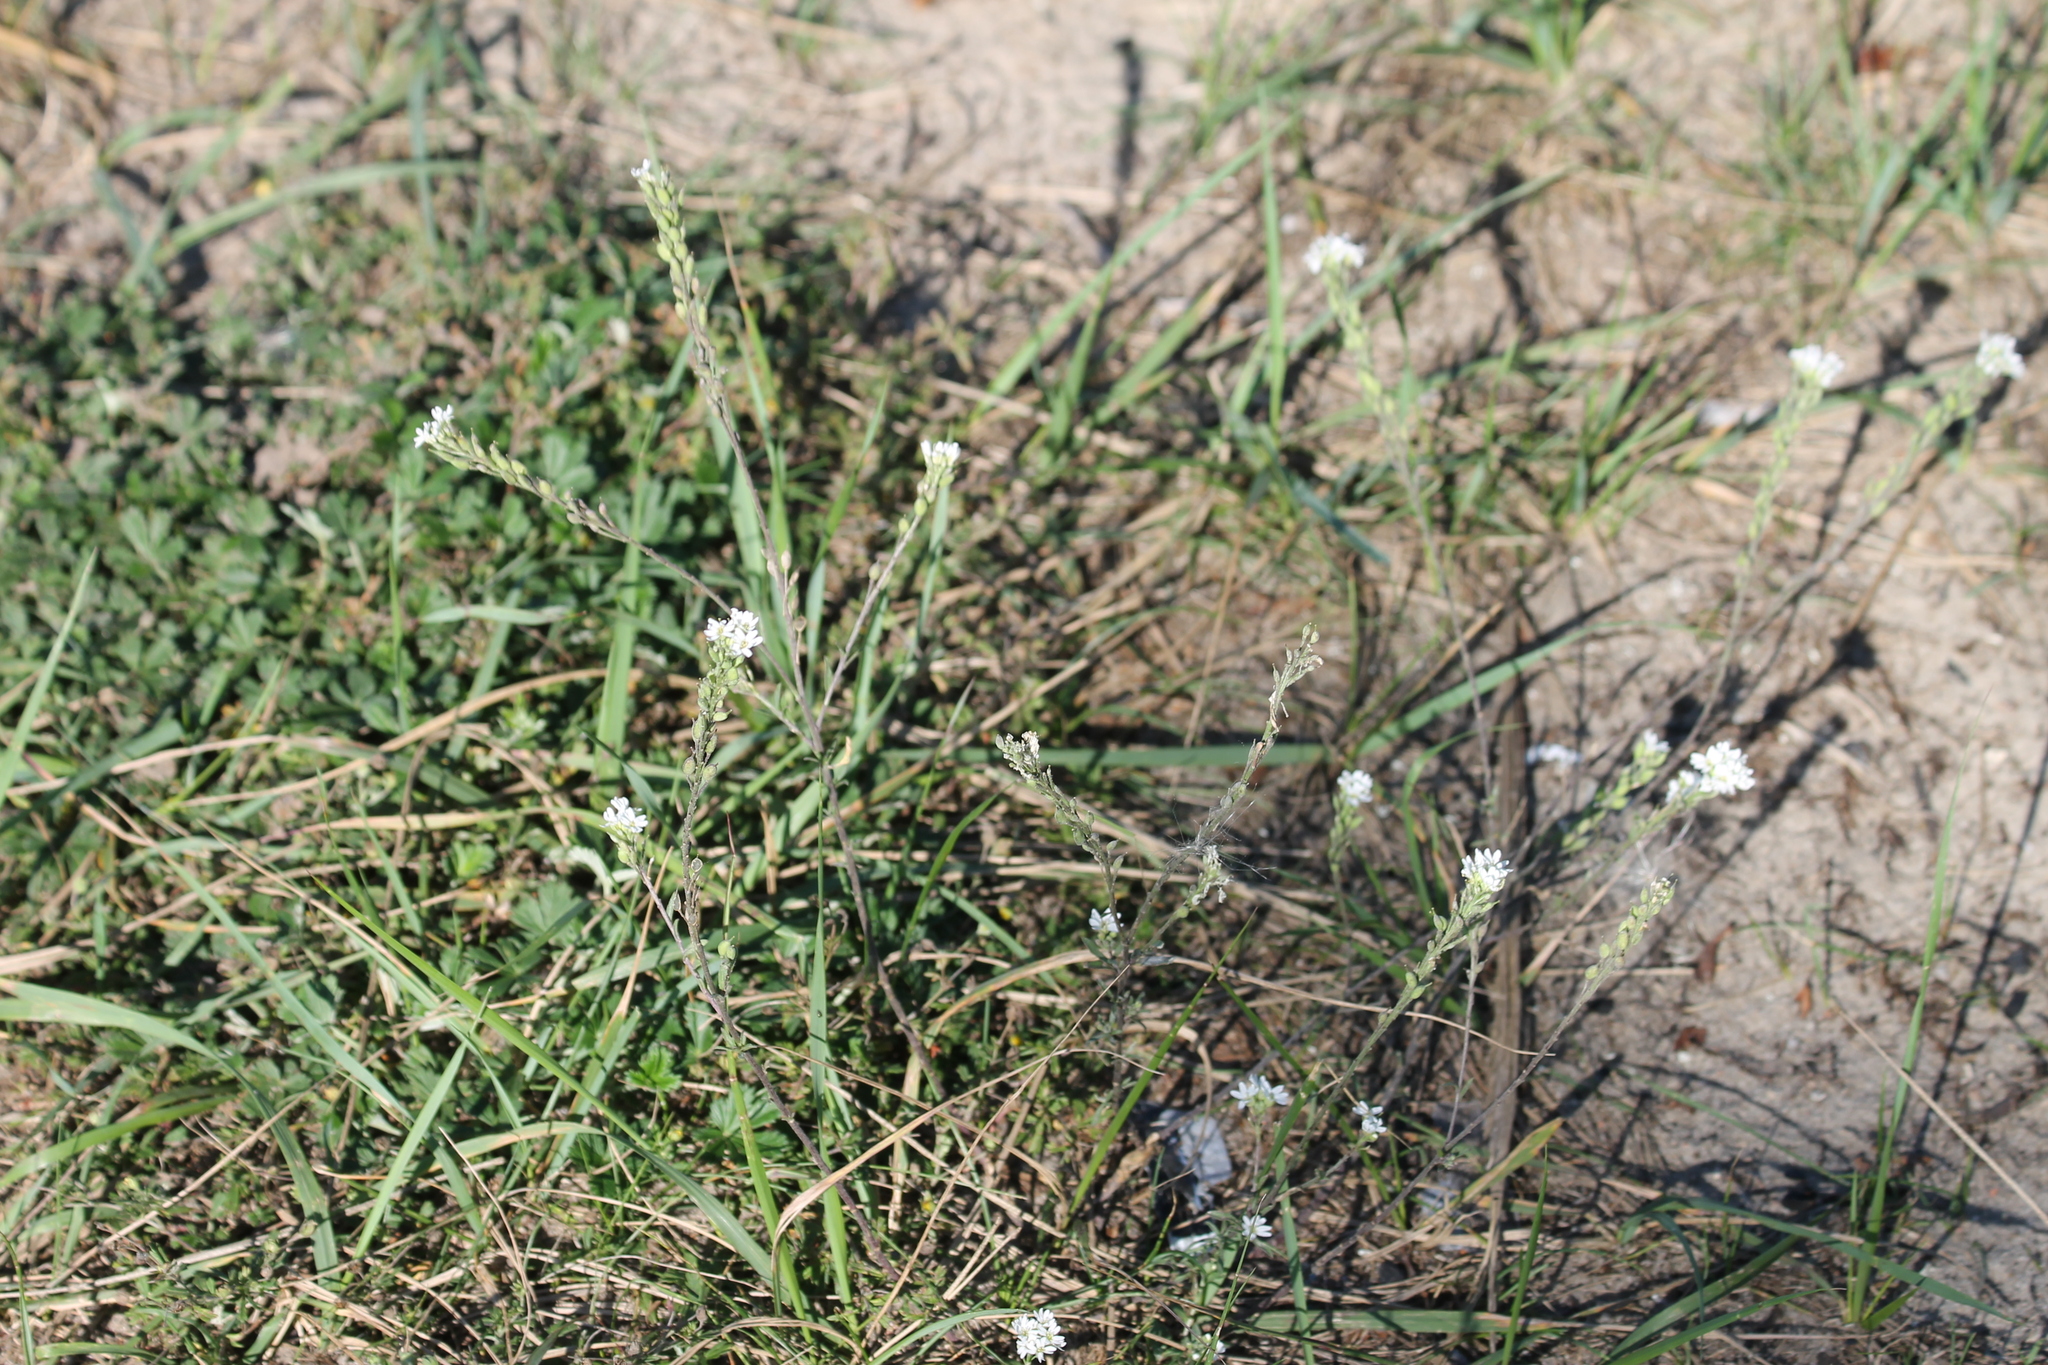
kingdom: Plantae
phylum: Tracheophyta
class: Magnoliopsida
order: Brassicales
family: Brassicaceae
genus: Berteroa
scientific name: Berteroa incana
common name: Hoary alison
